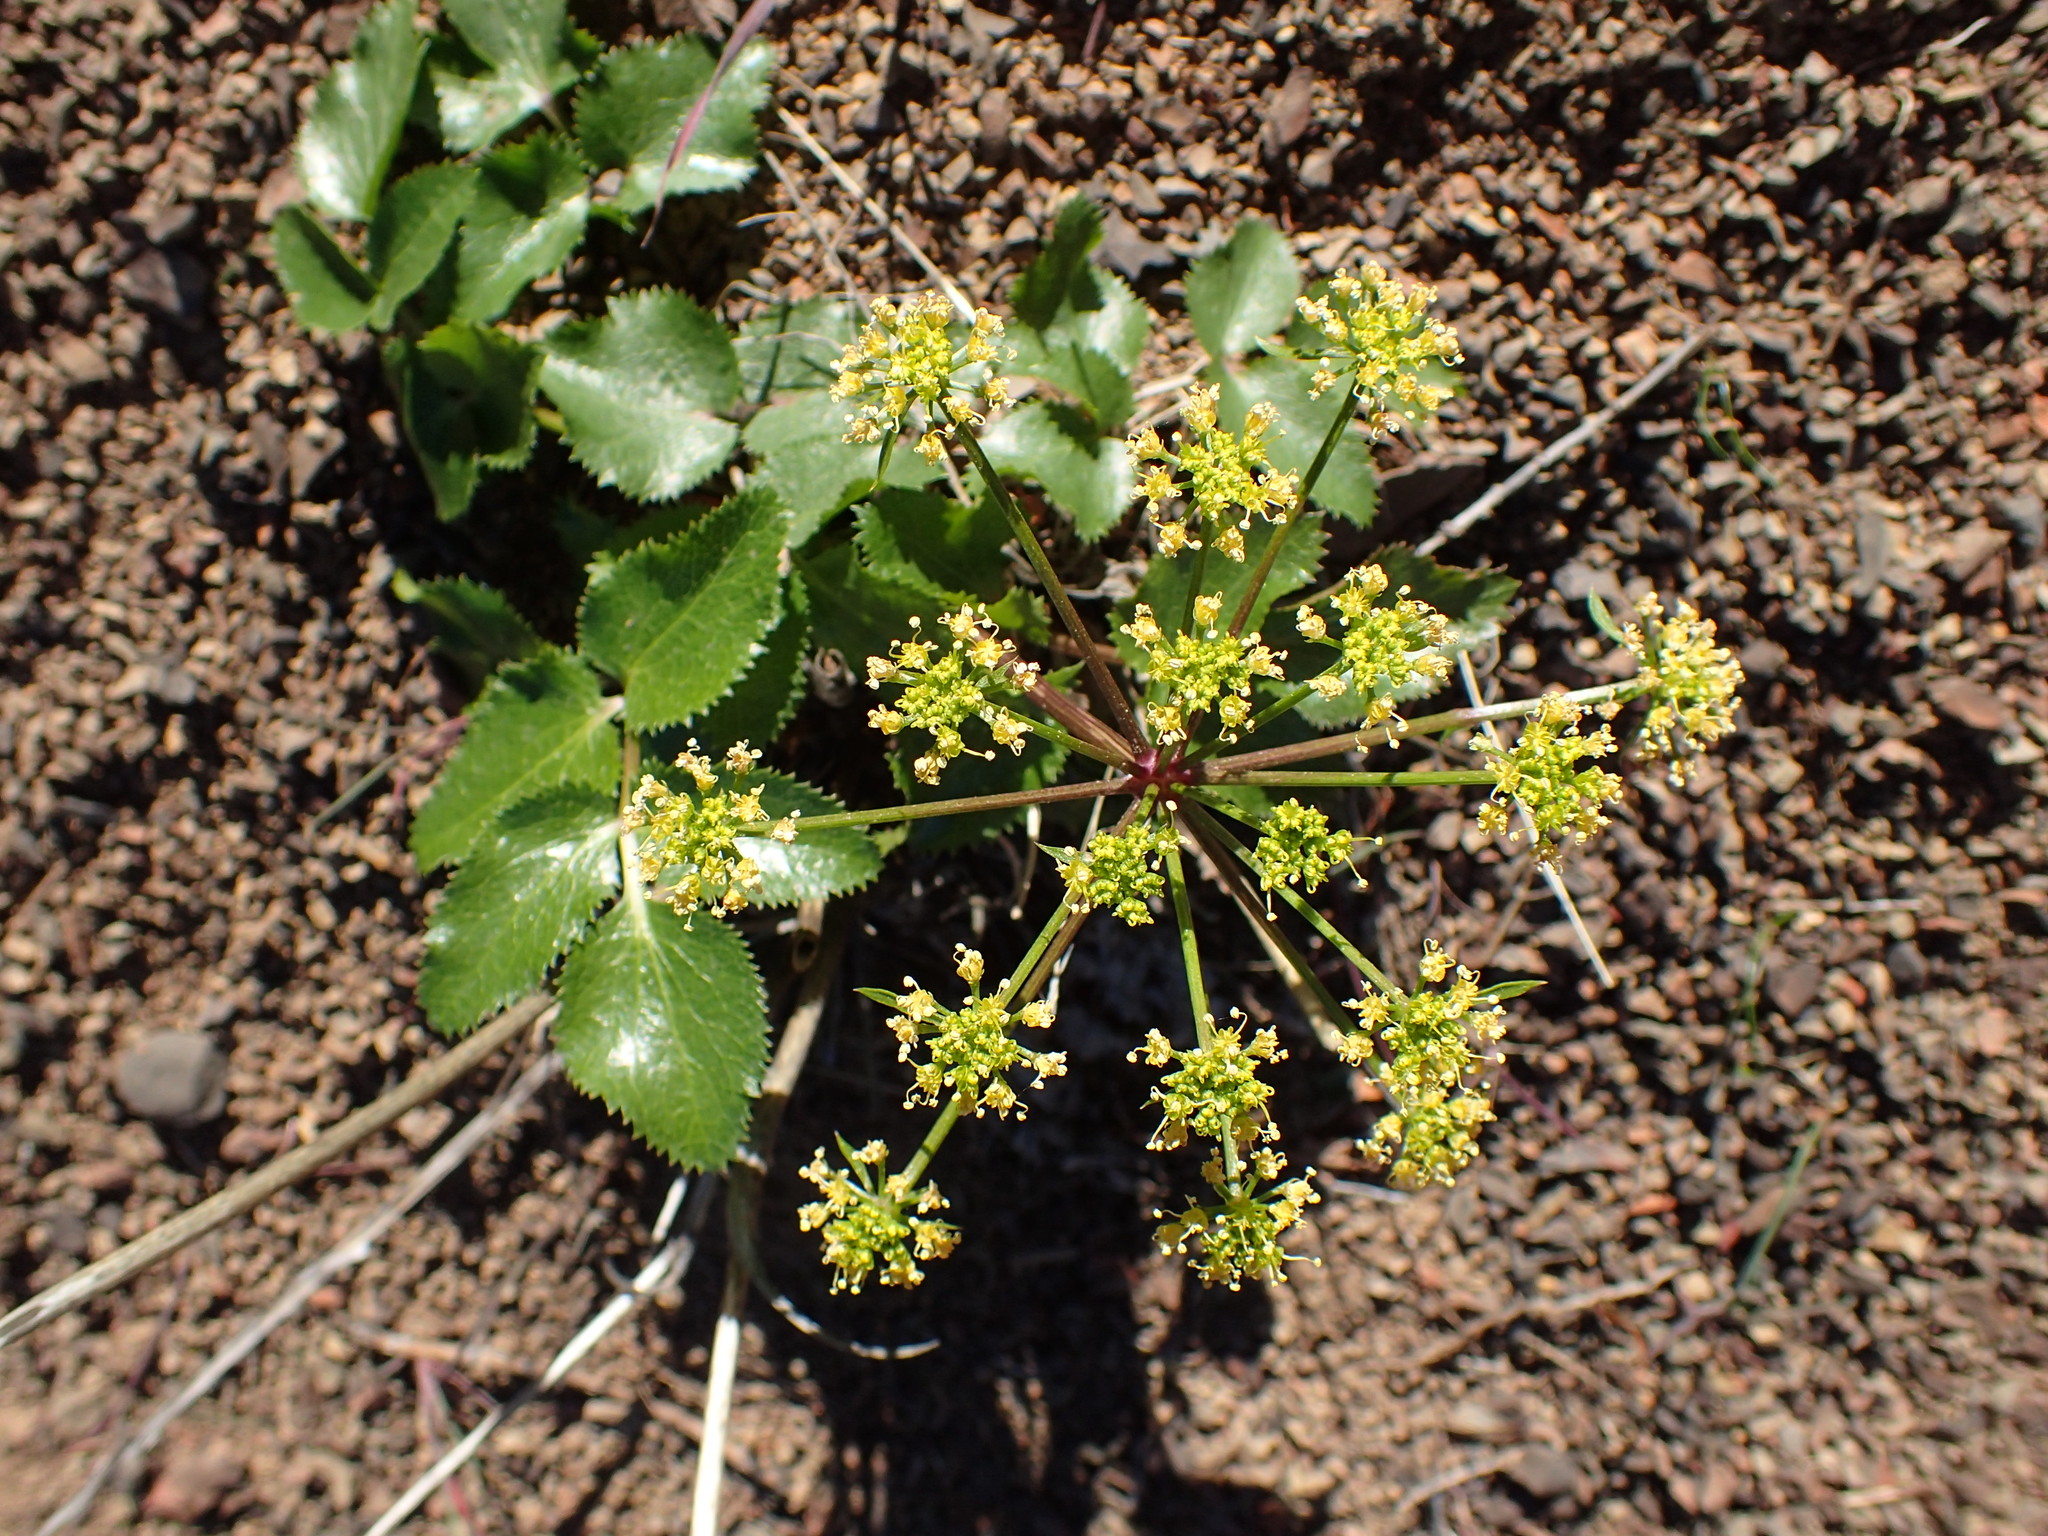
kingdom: Plantae
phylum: Tracheophyta
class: Magnoliopsida
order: Apiales
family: Apiaceae
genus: Tauschia
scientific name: Tauschia arguta
